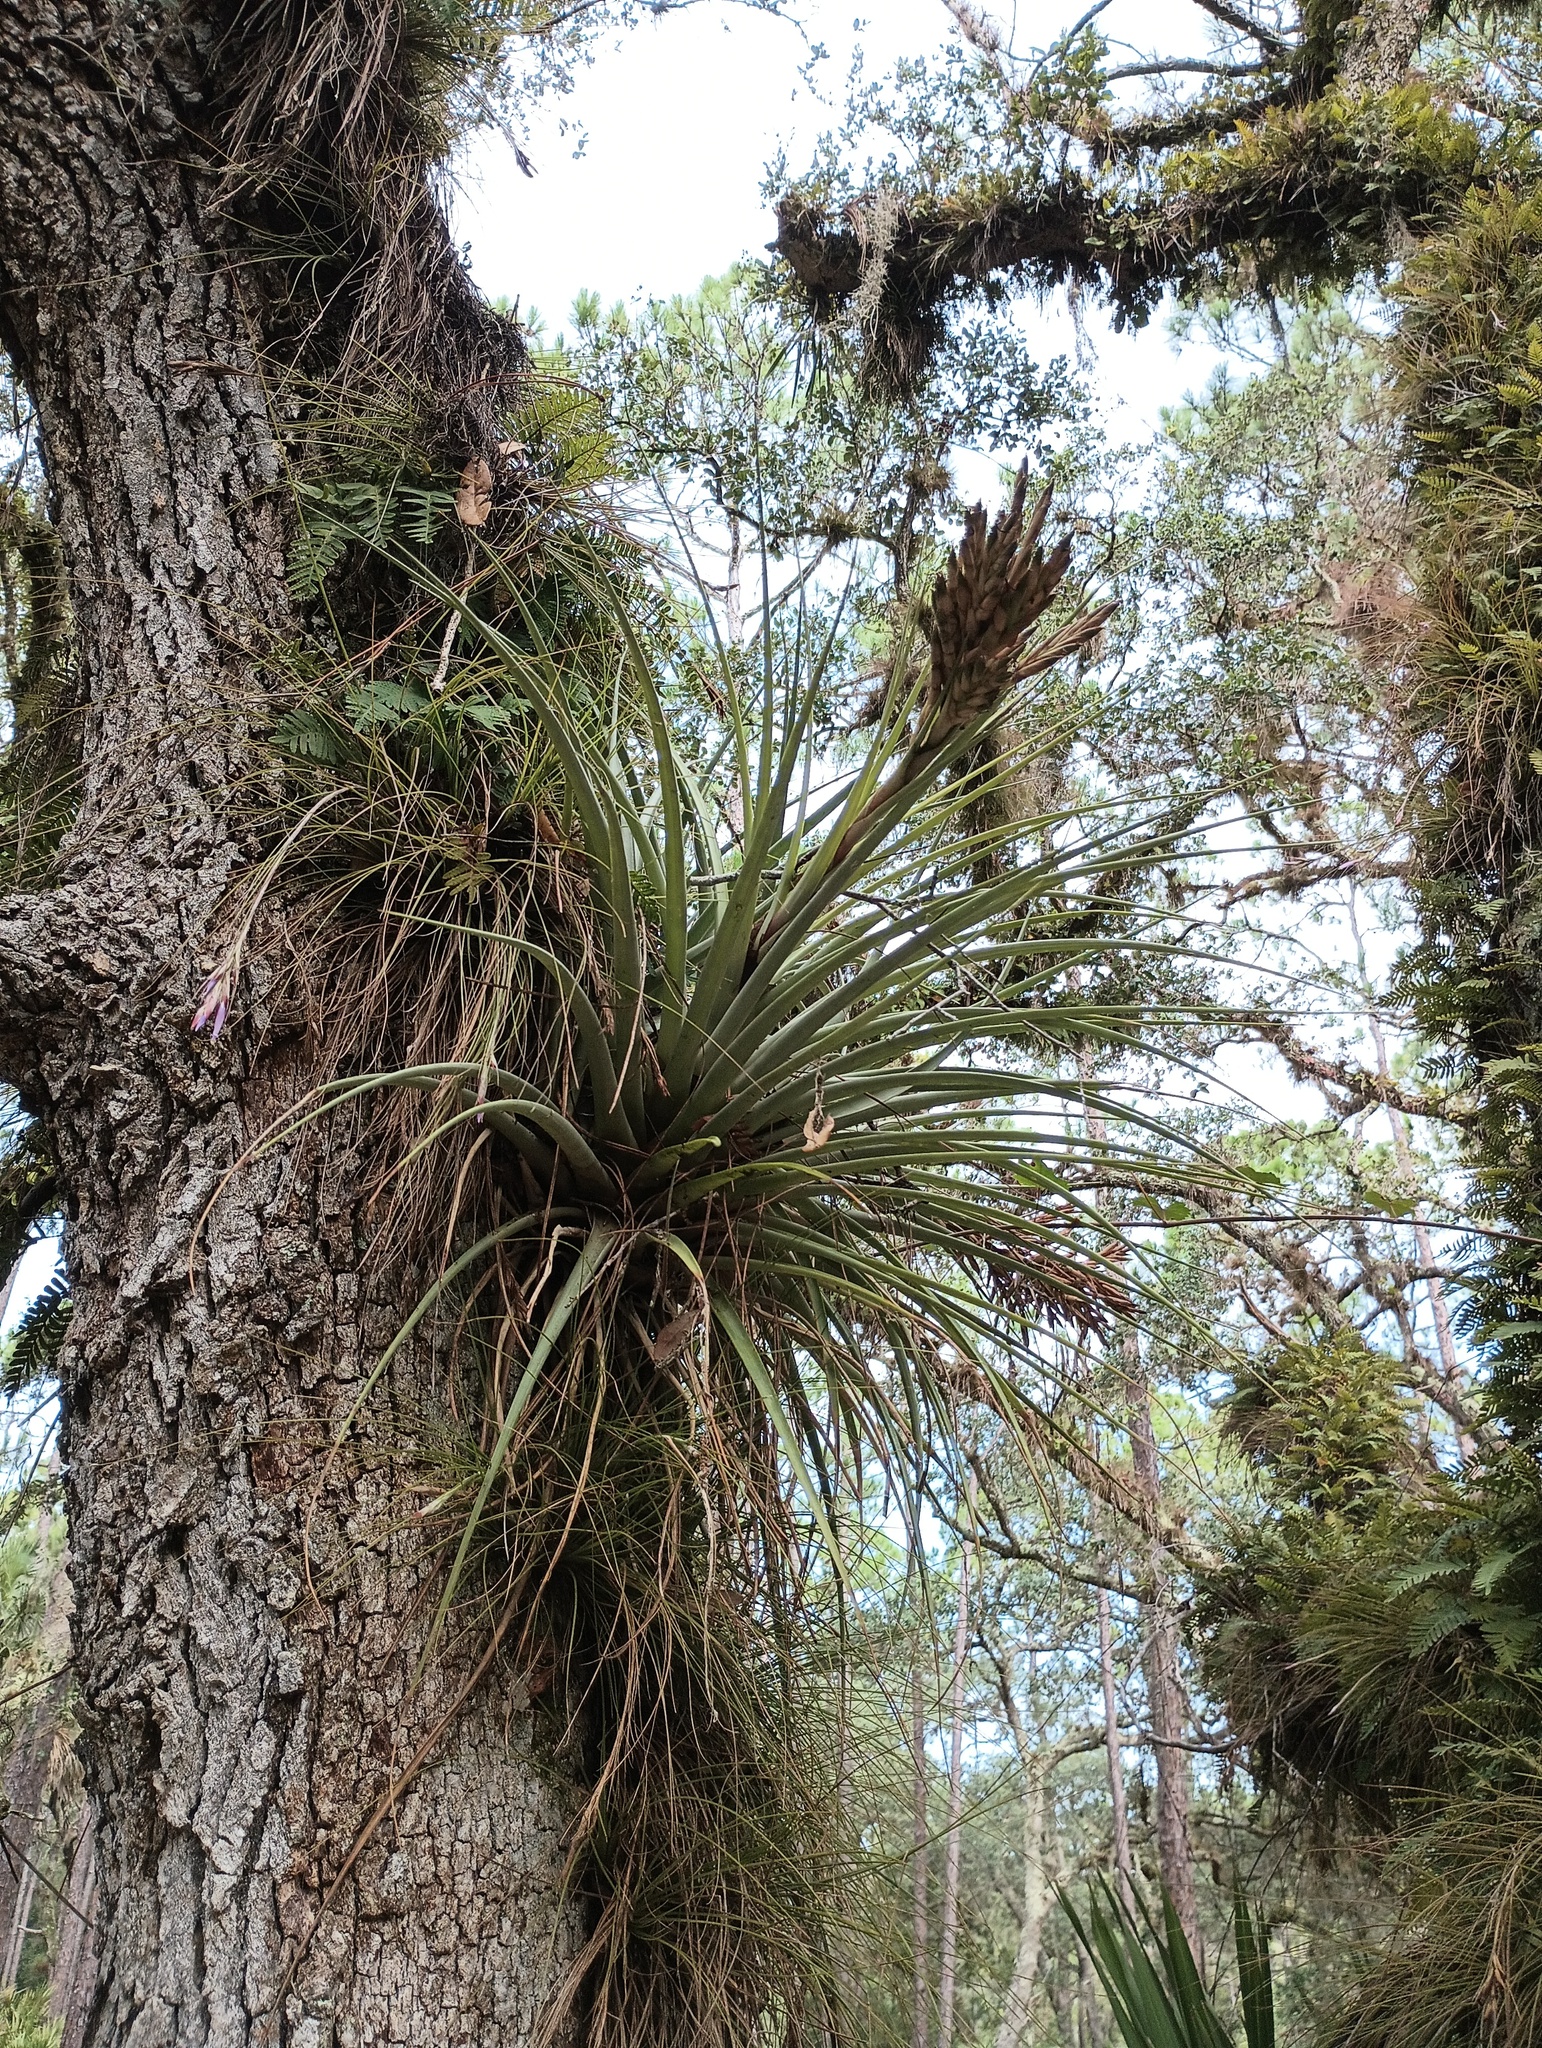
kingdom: Plantae
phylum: Tracheophyta
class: Liliopsida
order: Poales
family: Bromeliaceae
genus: Tillandsia
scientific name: Tillandsia fasciculata
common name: Giant airplant
